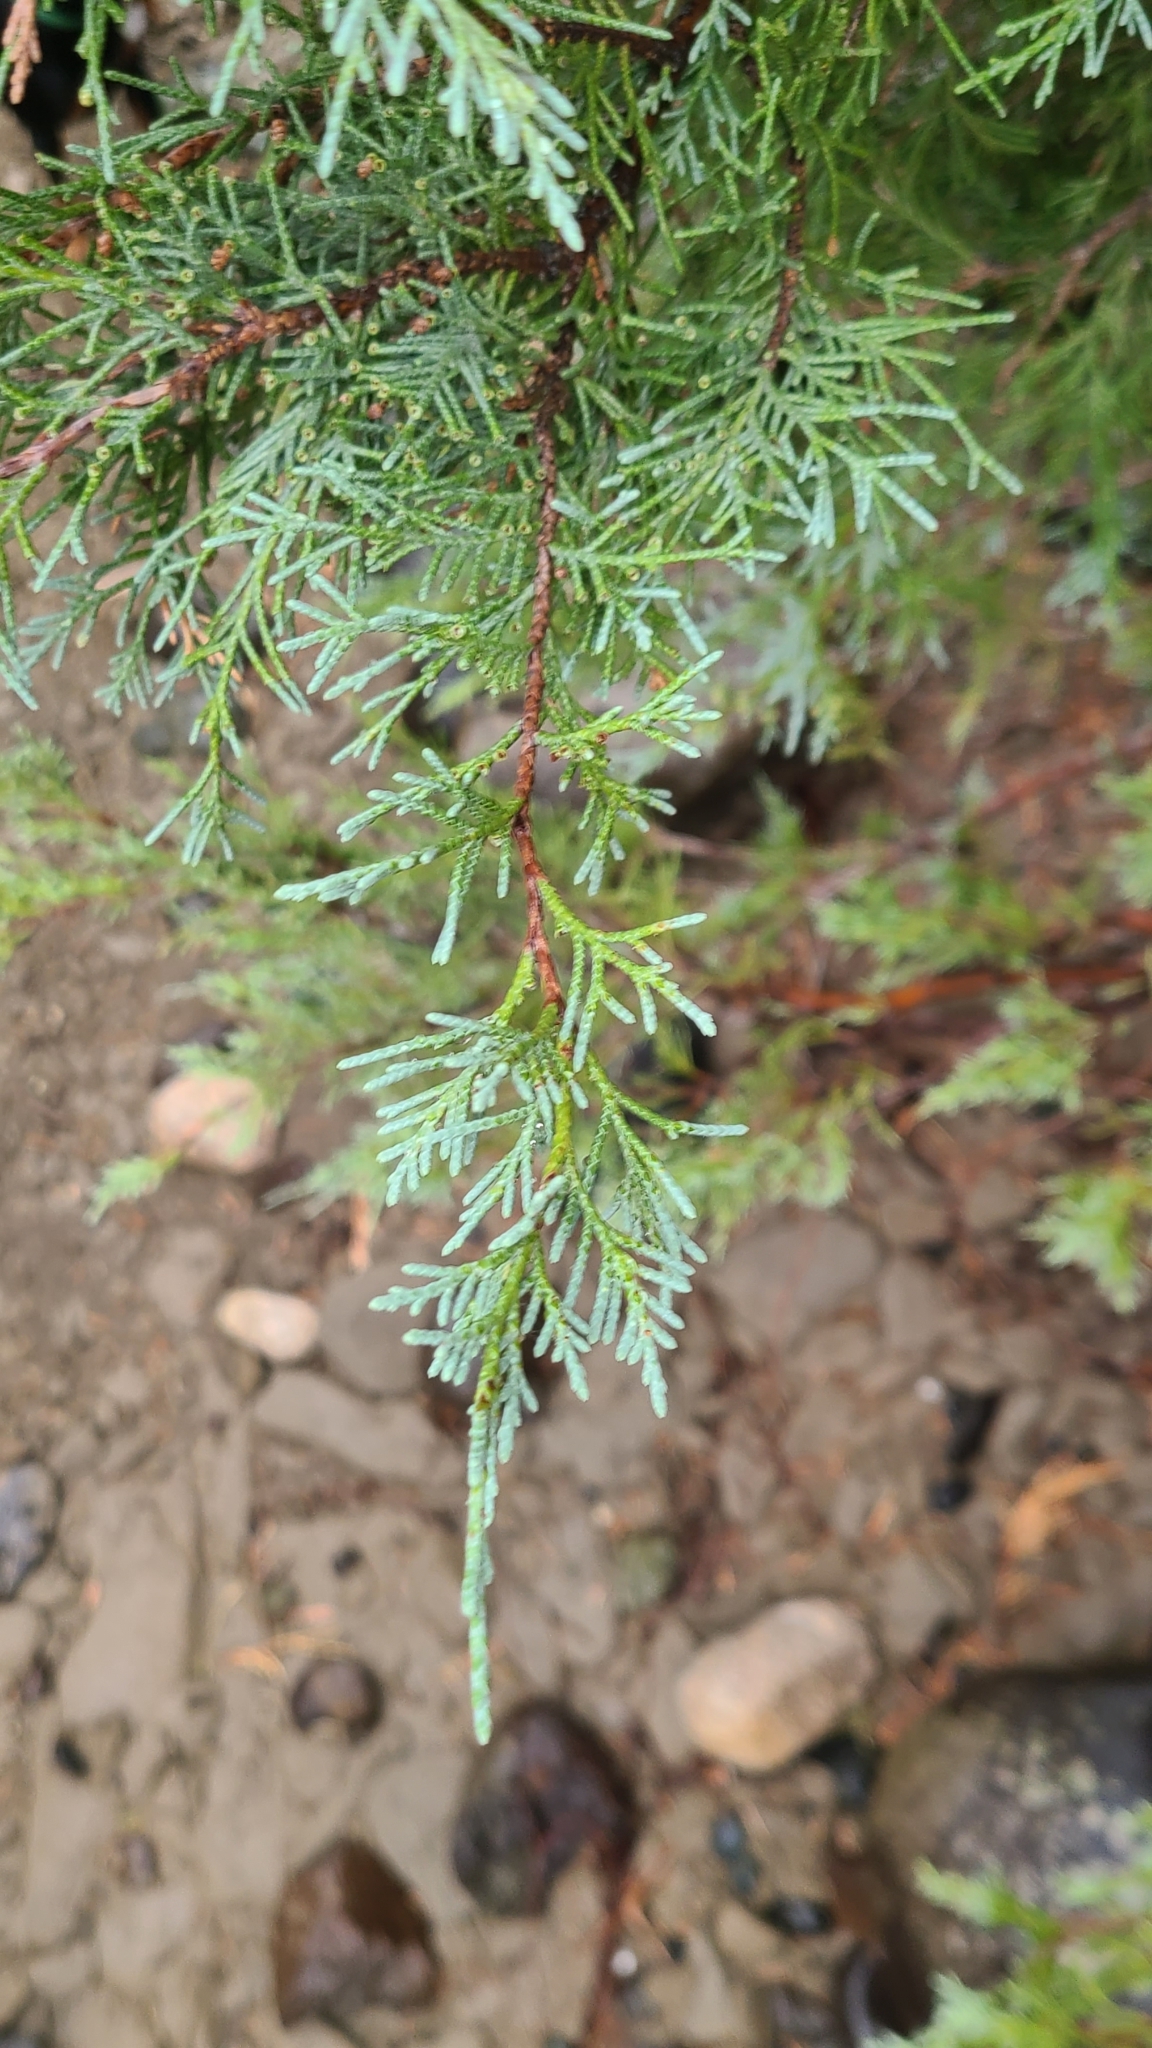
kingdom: Plantae
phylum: Tracheophyta
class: Pinopsida
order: Pinales
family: Cupressaceae
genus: Juniperus
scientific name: Juniperus scopulorum
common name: Rocky mountain juniper
